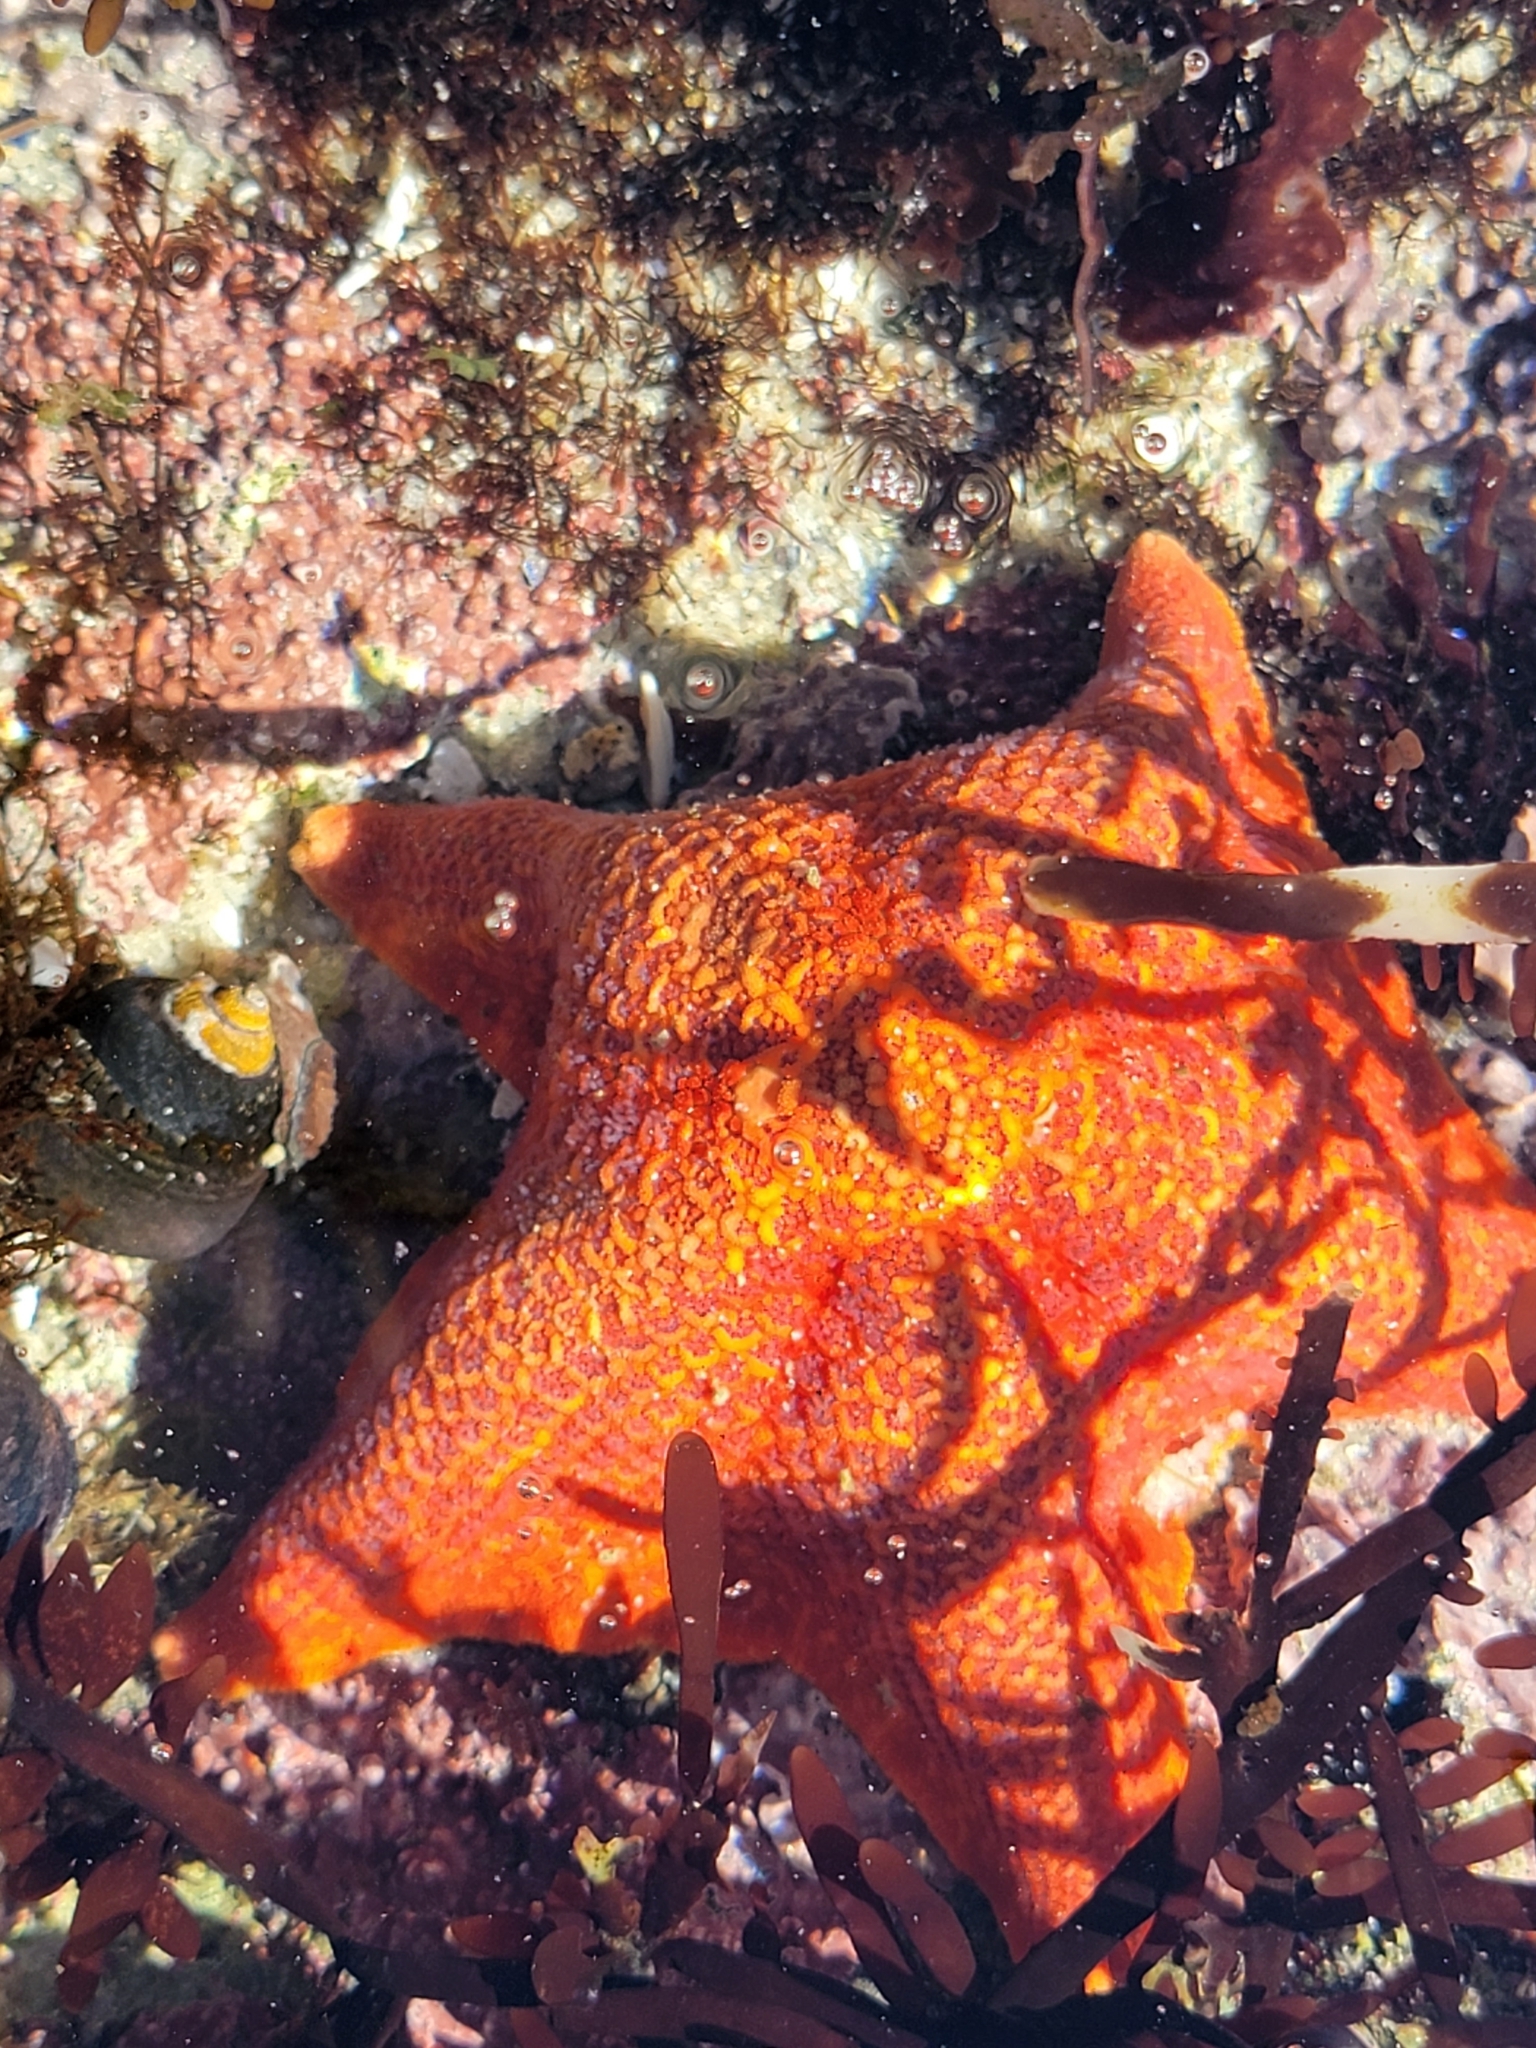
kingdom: Animalia
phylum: Echinodermata
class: Asteroidea
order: Valvatida
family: Asterinidae
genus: Patiria
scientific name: Patiria miniata
